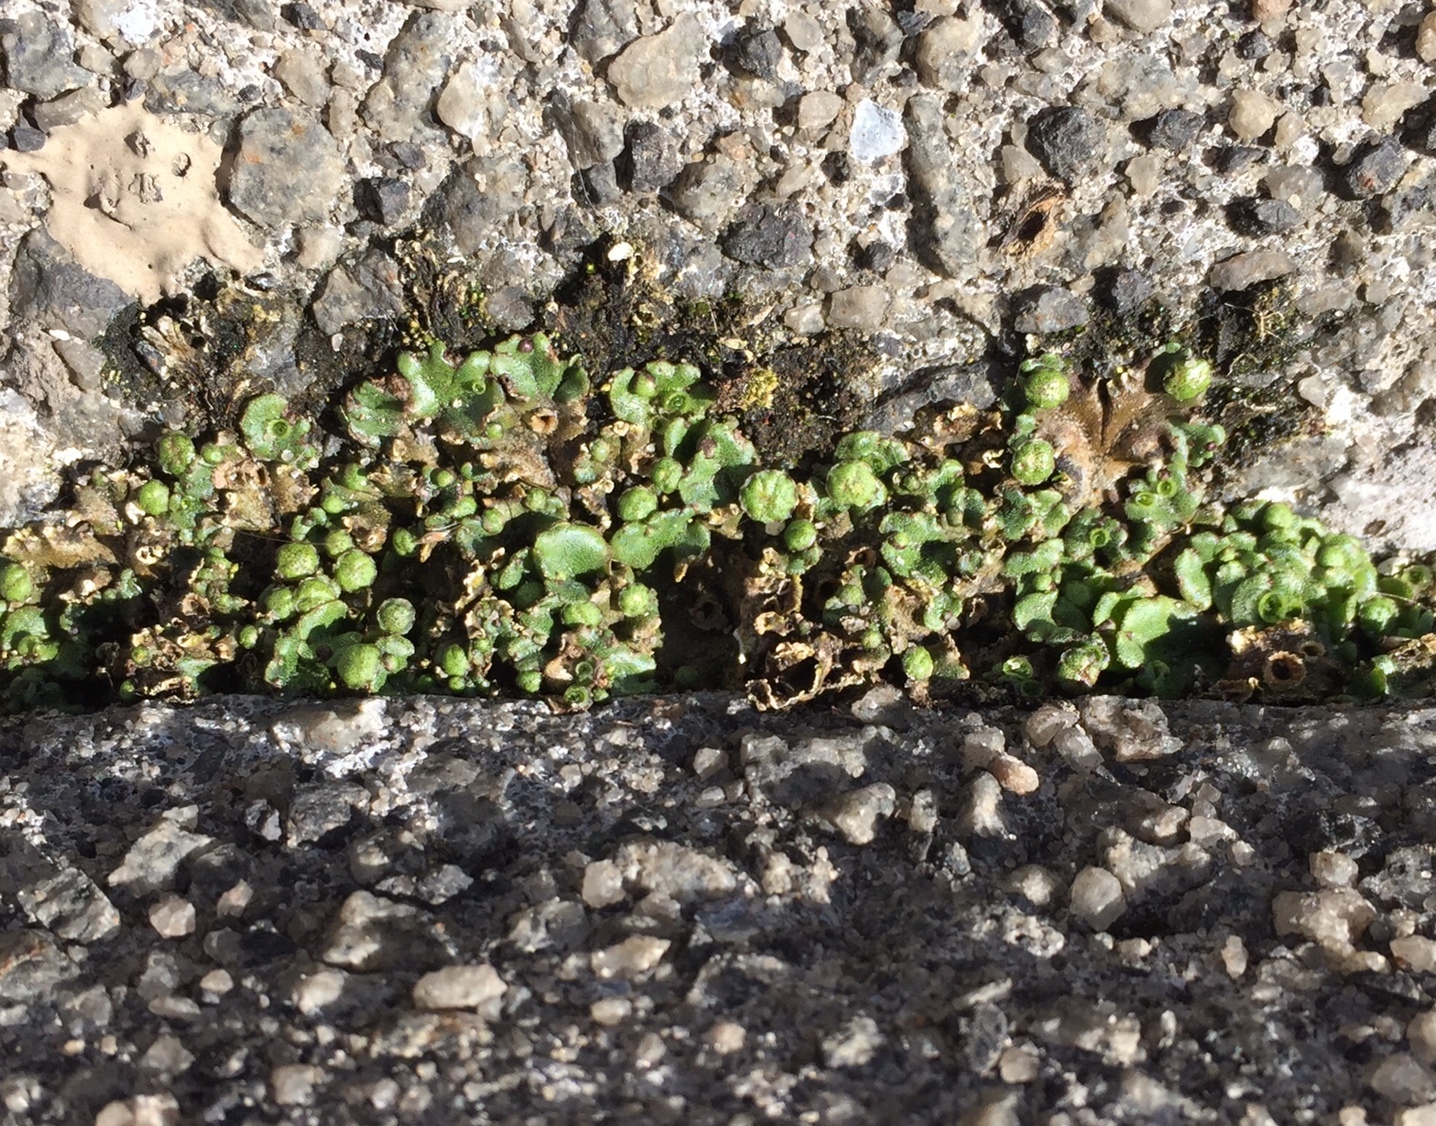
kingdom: Plantae
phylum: Marchantiophyta
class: Marchantiopsida
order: Marchantiales
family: Marchantiaceae
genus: Marchantia
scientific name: Marchantia polymorpha
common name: Common liverwort
